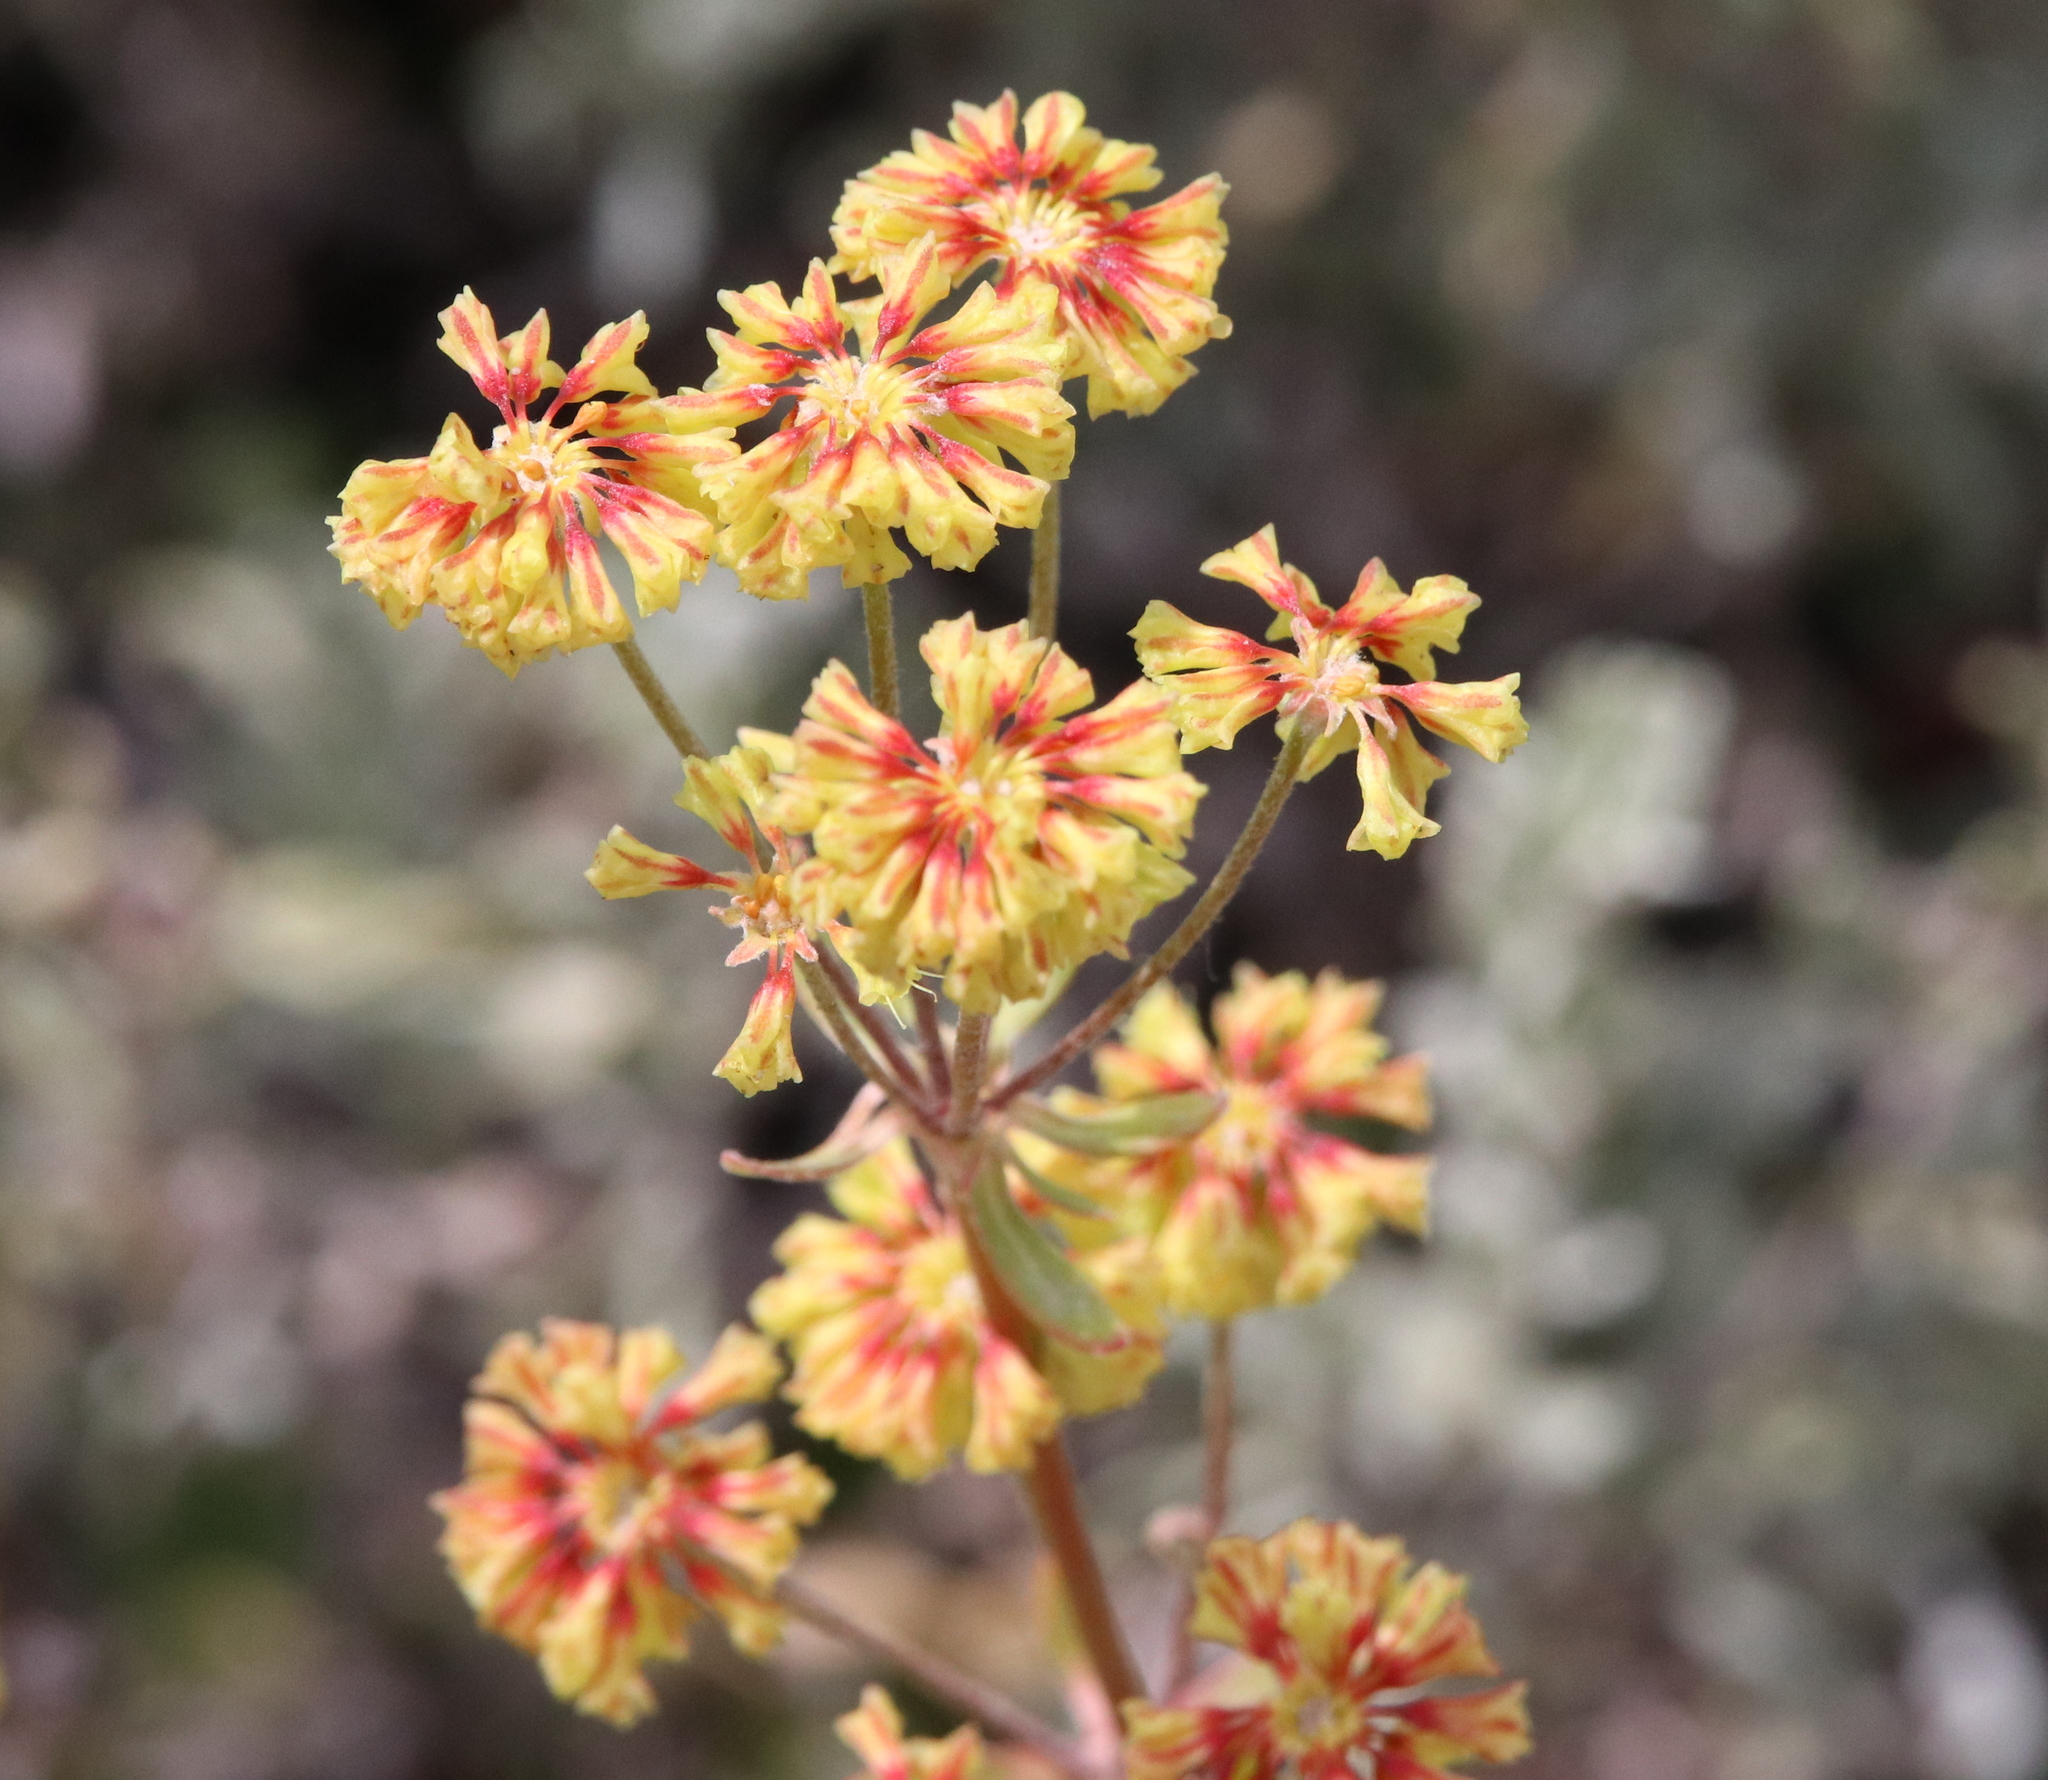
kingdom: Plantae
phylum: Tracheophyta
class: Magnoliopsida
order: Caryophyllales
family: Polygonaceae
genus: Eriogonum
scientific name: Eriogonum umbellatum
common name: Sulfur-buckwheat
